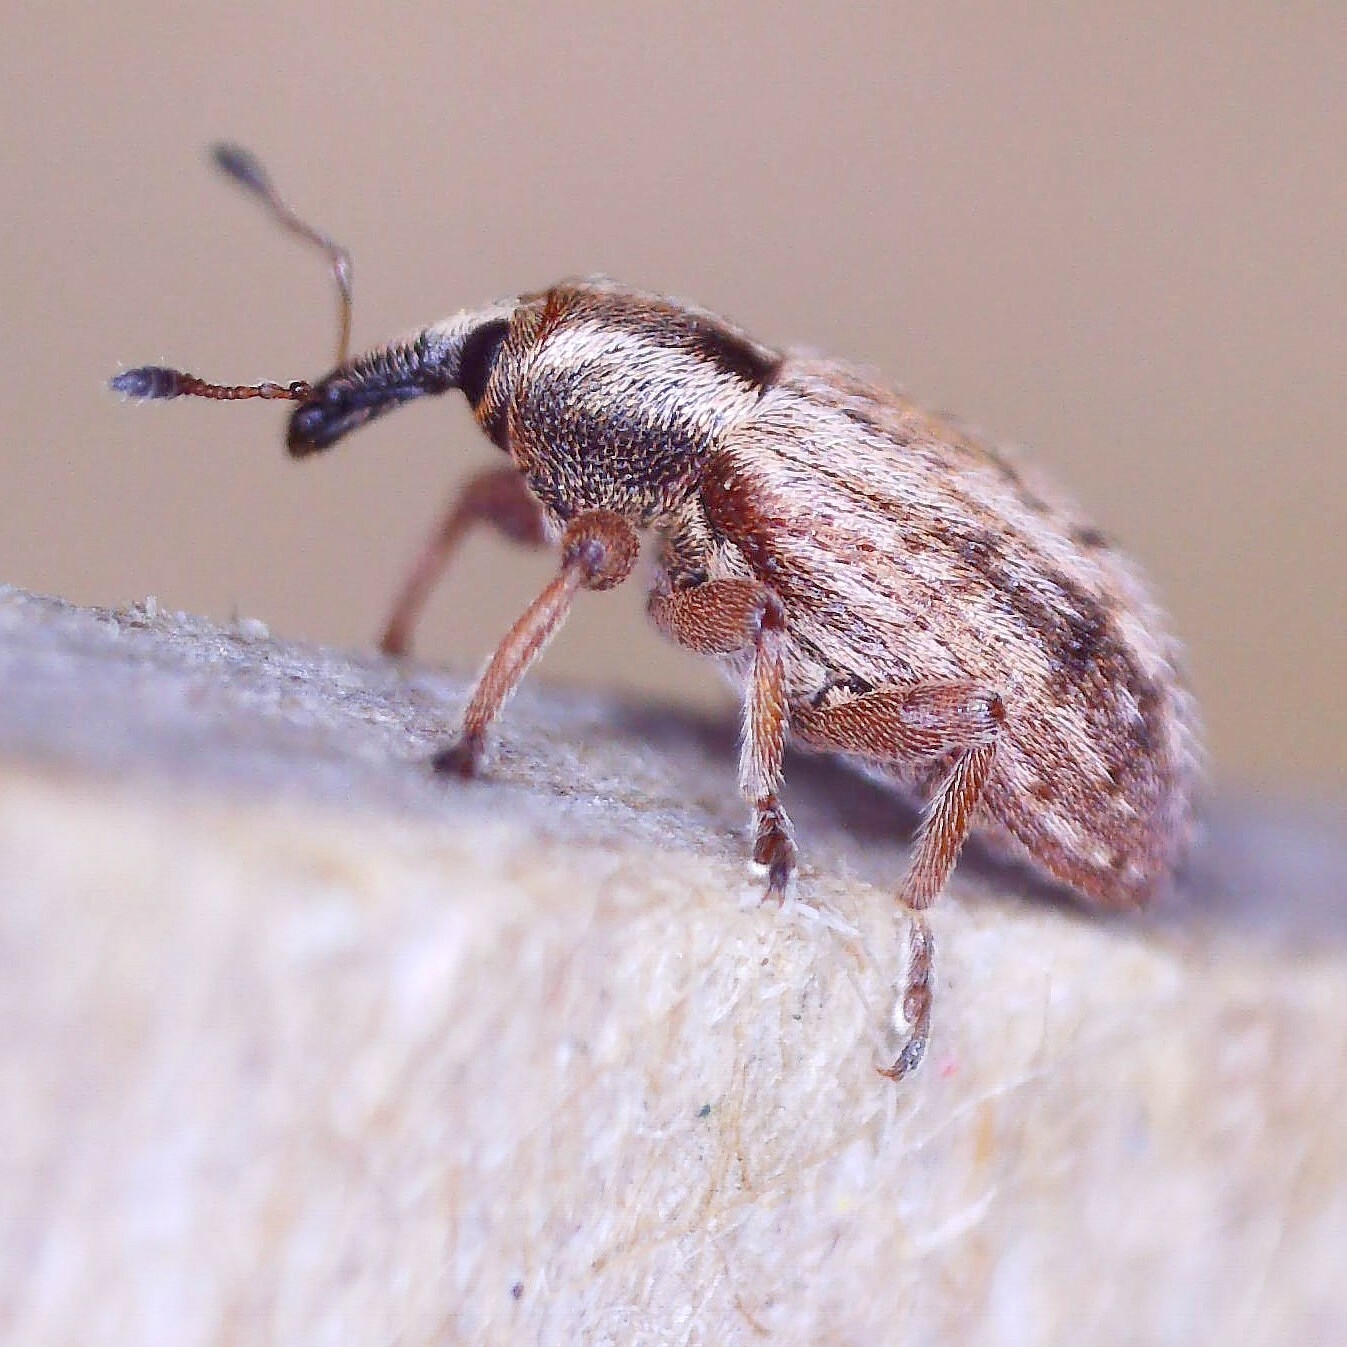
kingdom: Animalia
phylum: Arthropoda
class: Insecta
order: Coleoptera
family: Curculionidae
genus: Hypera
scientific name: Hypera venusta
